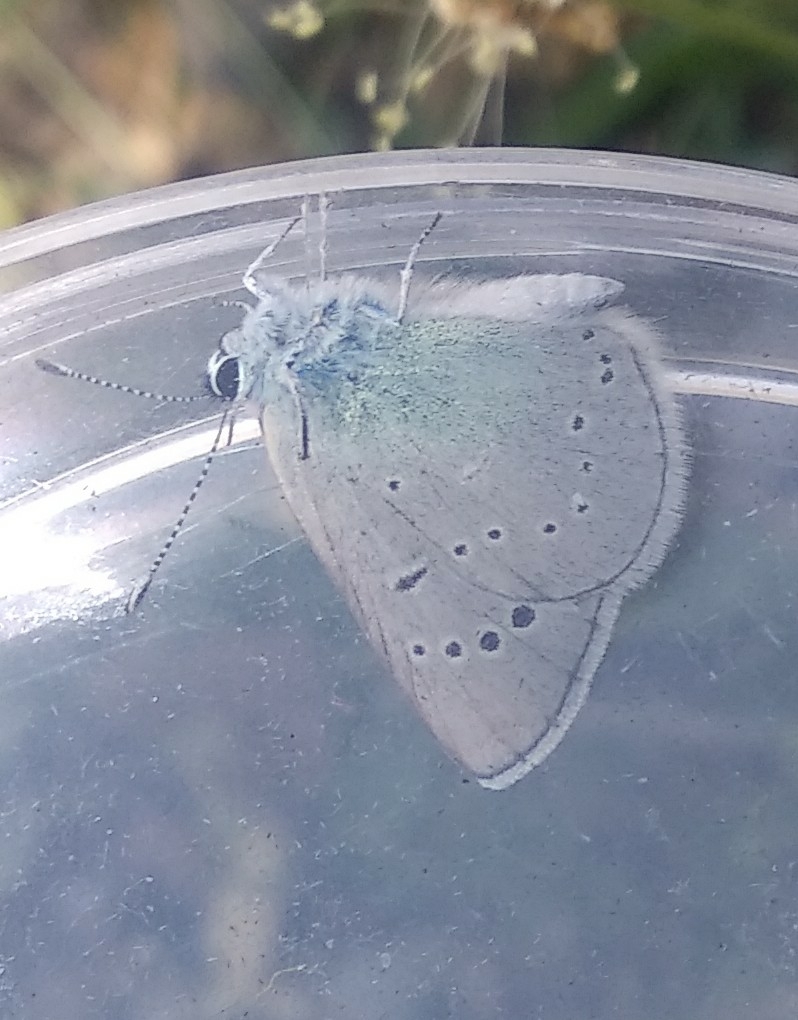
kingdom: Animalia
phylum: Arthropoda
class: Insecta
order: Lepidoptera
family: Lycaenidae
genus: Glaucopsyche
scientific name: Glaucopsyche alexis
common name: Green-underside blue
